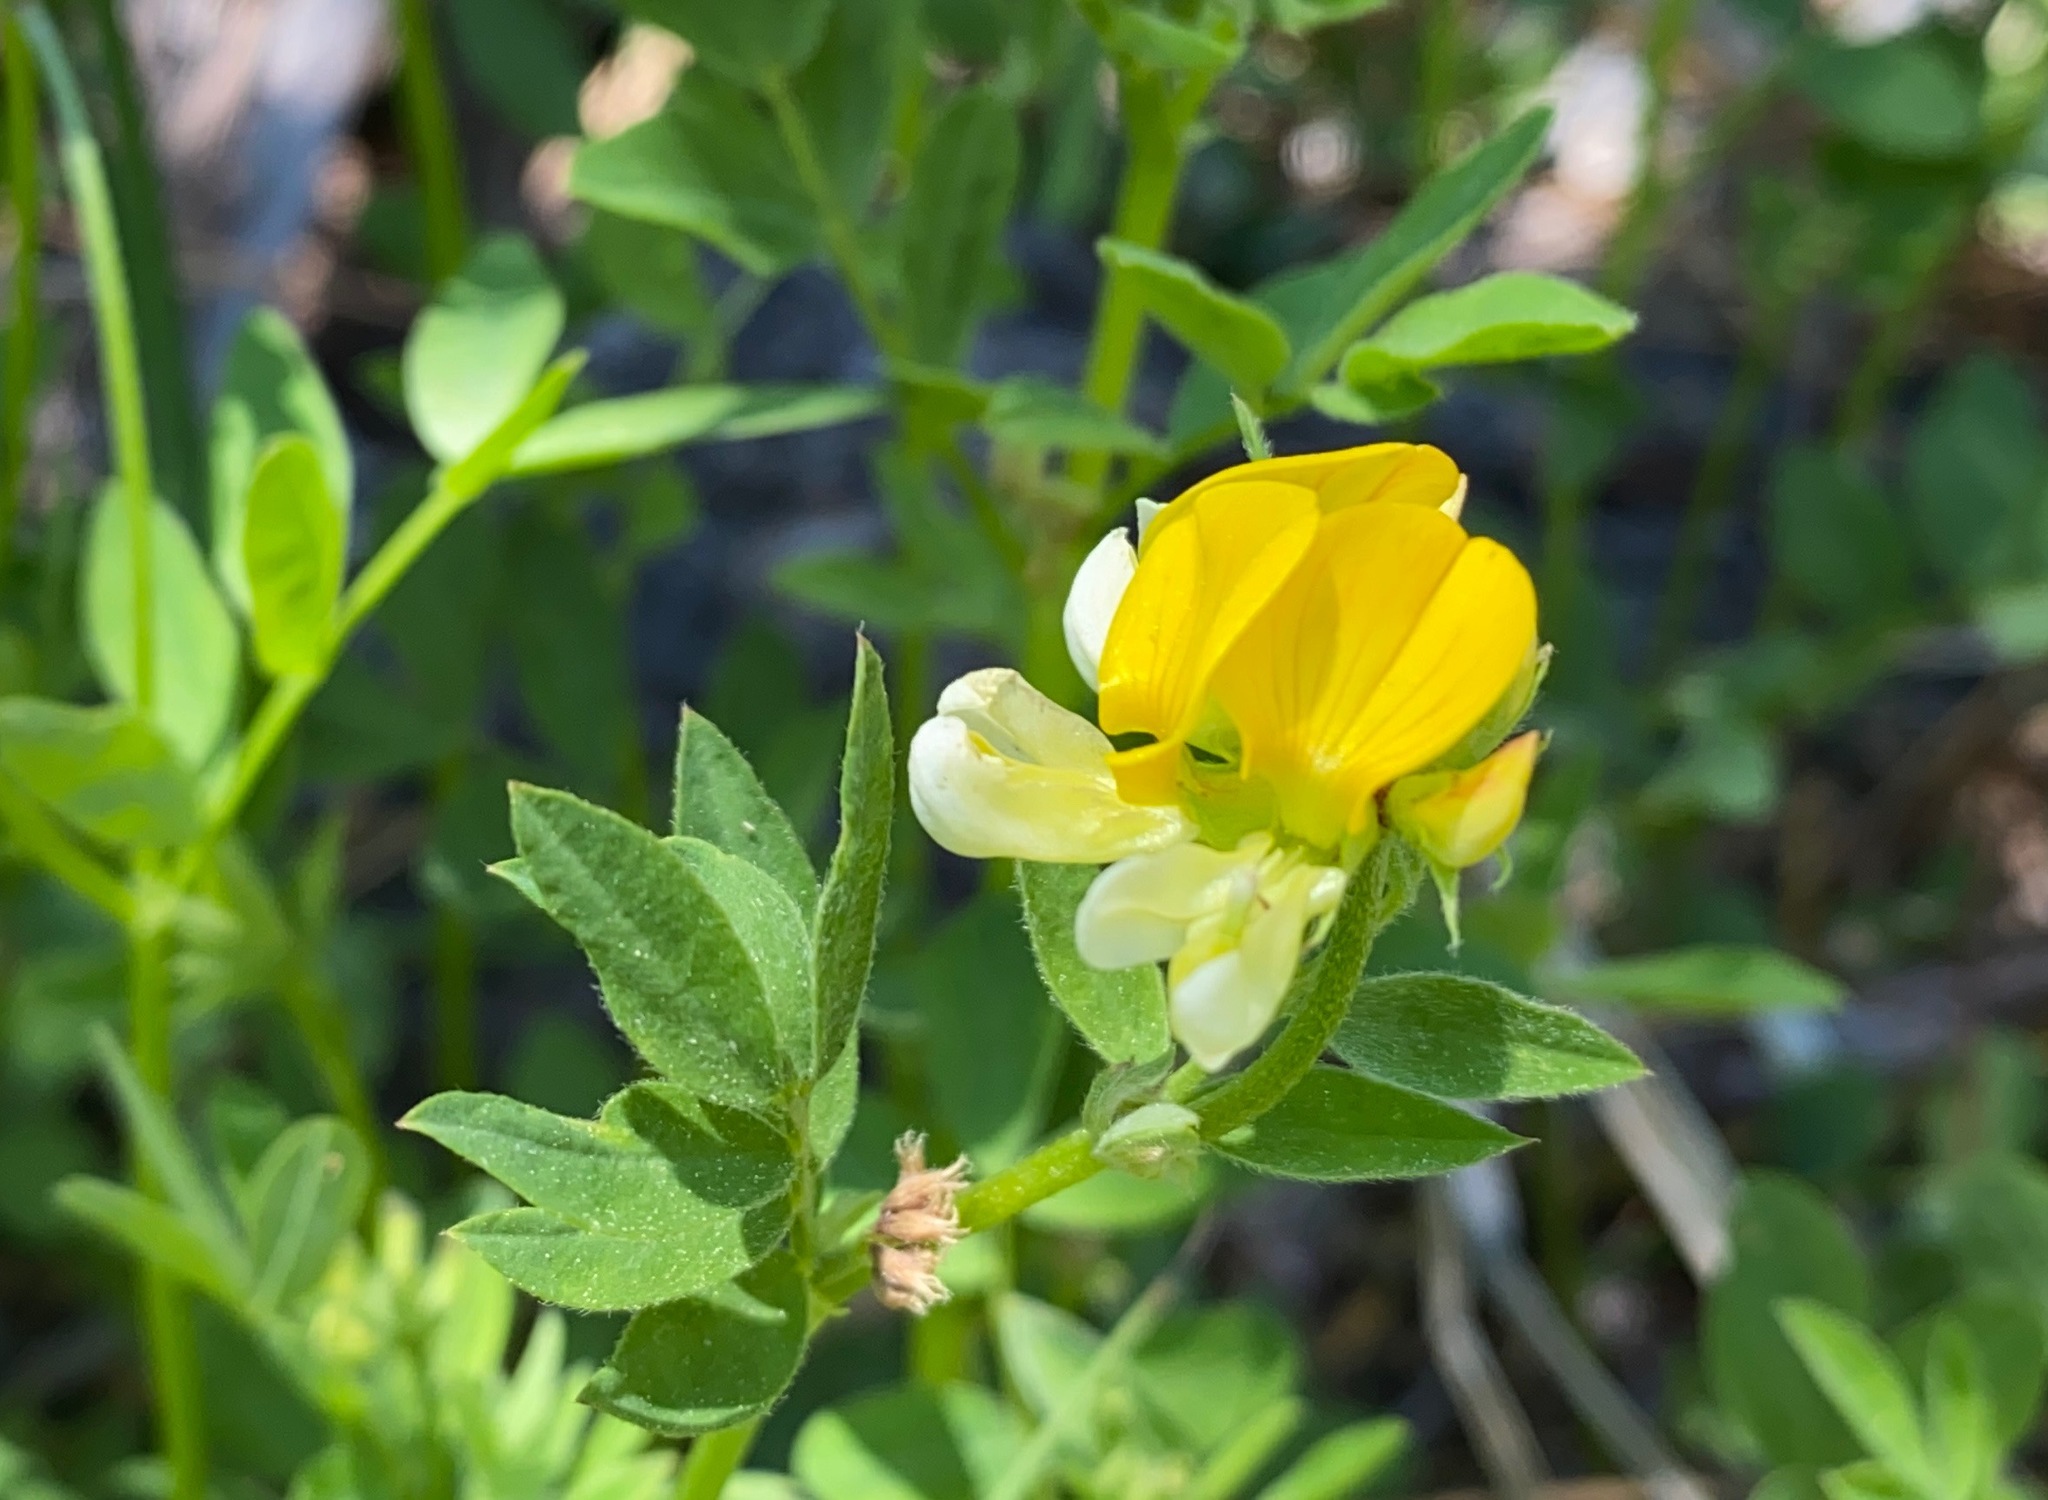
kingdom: Plantae
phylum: Tracheophyta
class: Magnoliopsida
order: Fabales
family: Fabaceae
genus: Hosackia
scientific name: Hosackia oblongifolia
